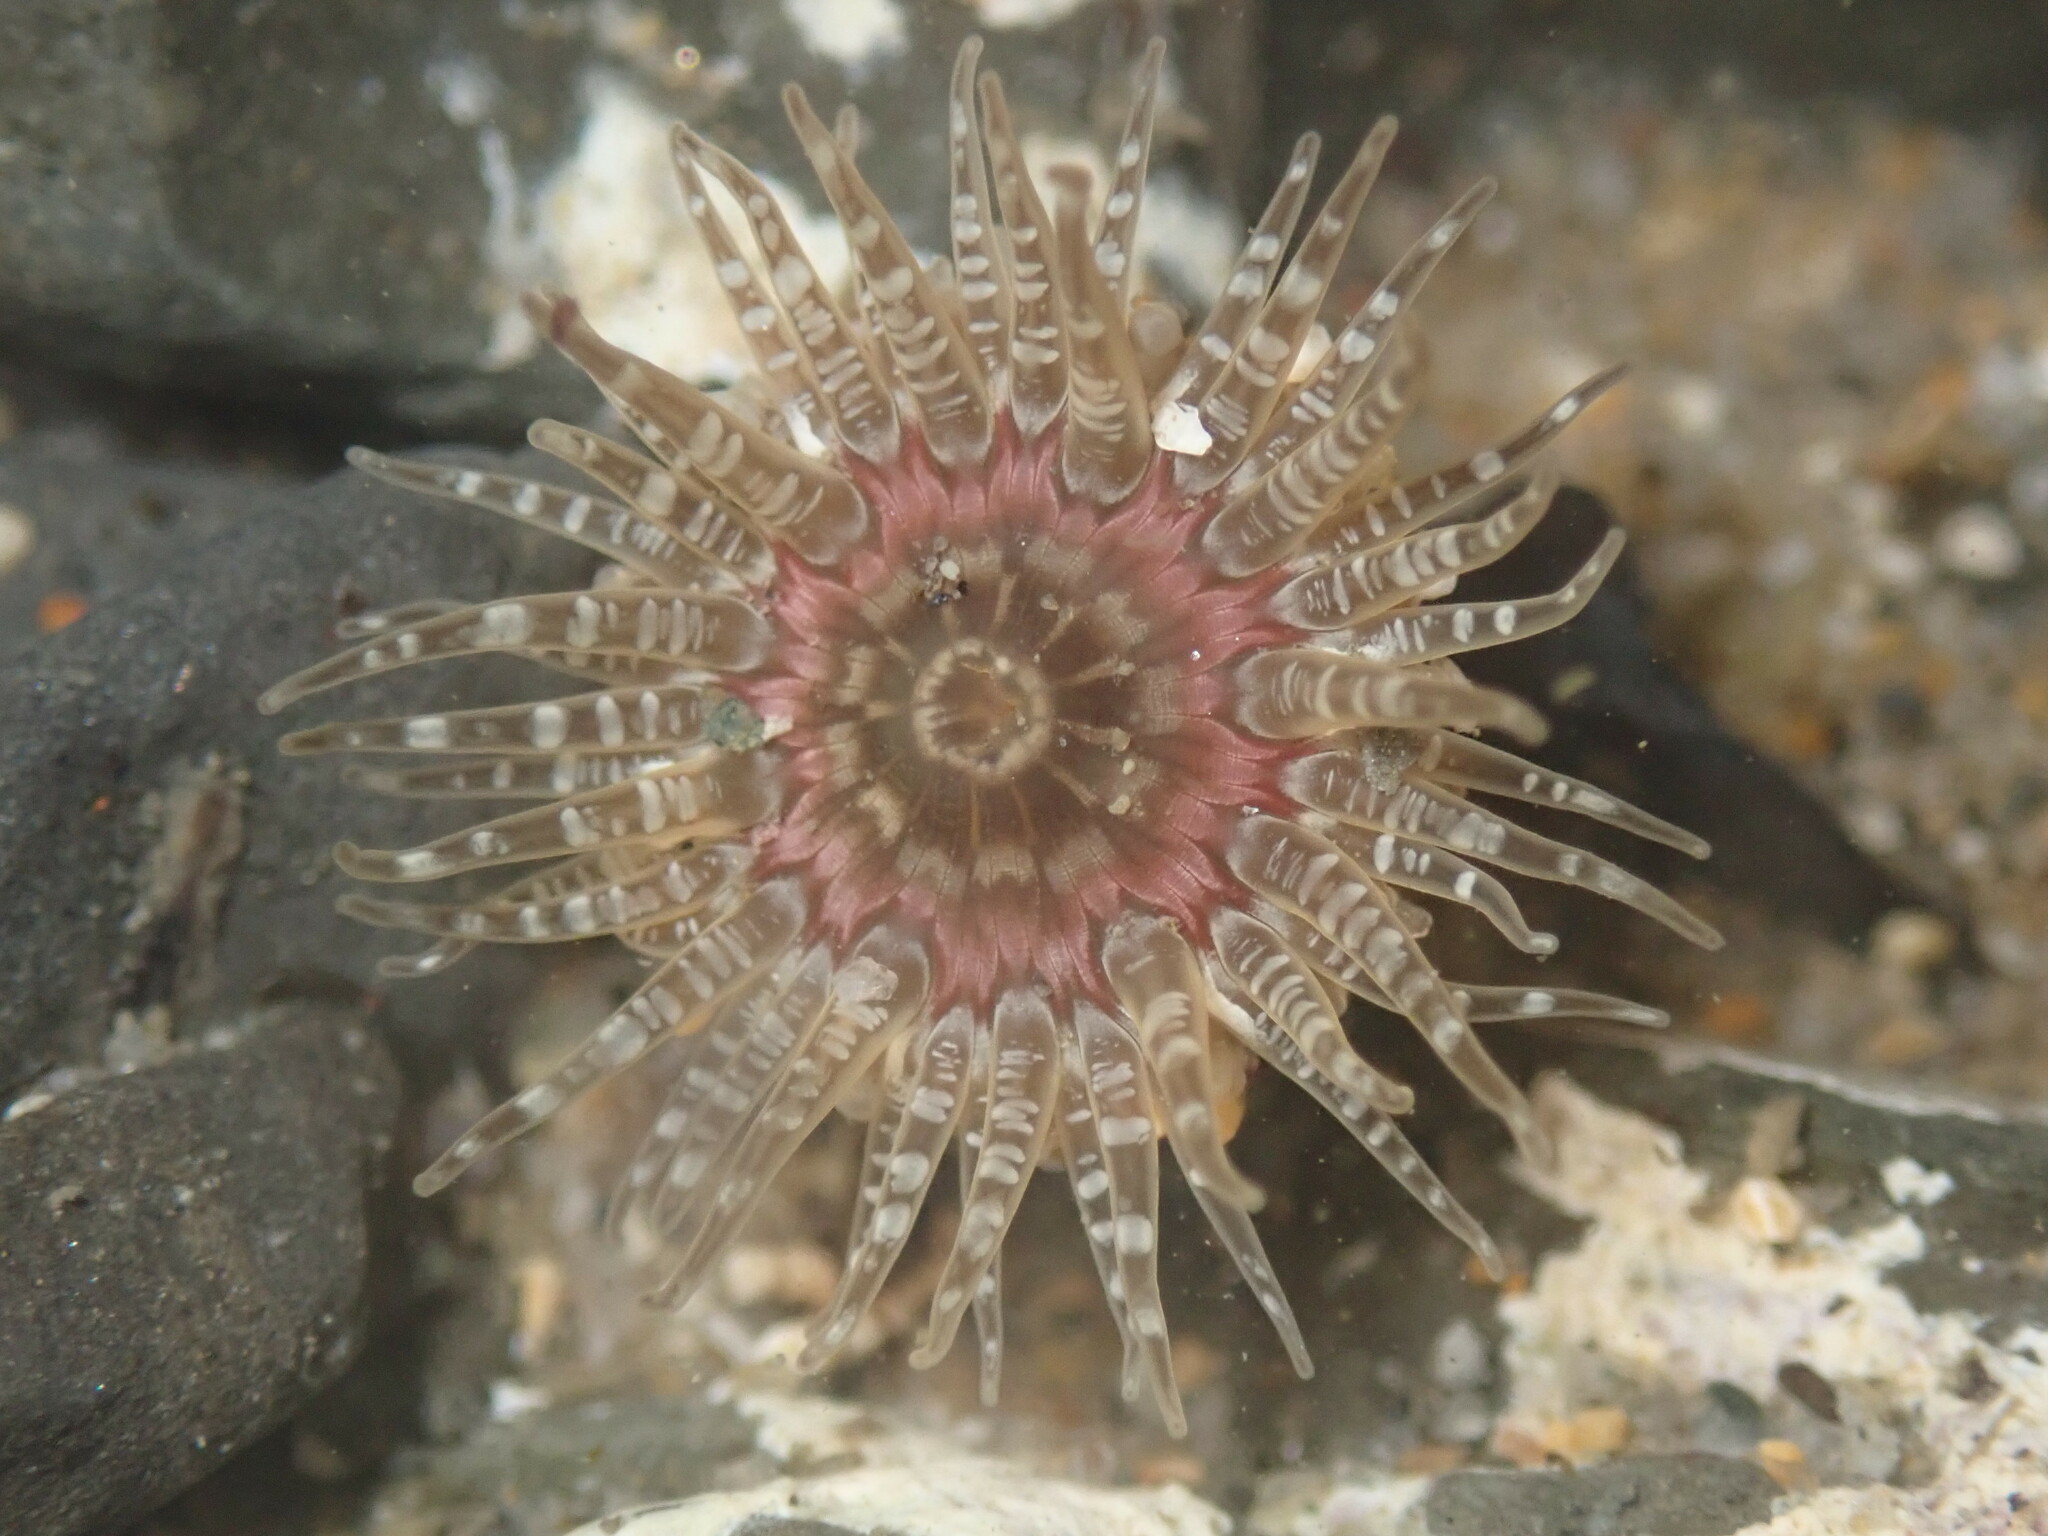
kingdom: Animalia
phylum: Cnidaria
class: Anthozoa
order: Actiniaria
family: Actiniidae
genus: Anthopleura
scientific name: Anthopleura artemisia
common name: Buried sea anemone
